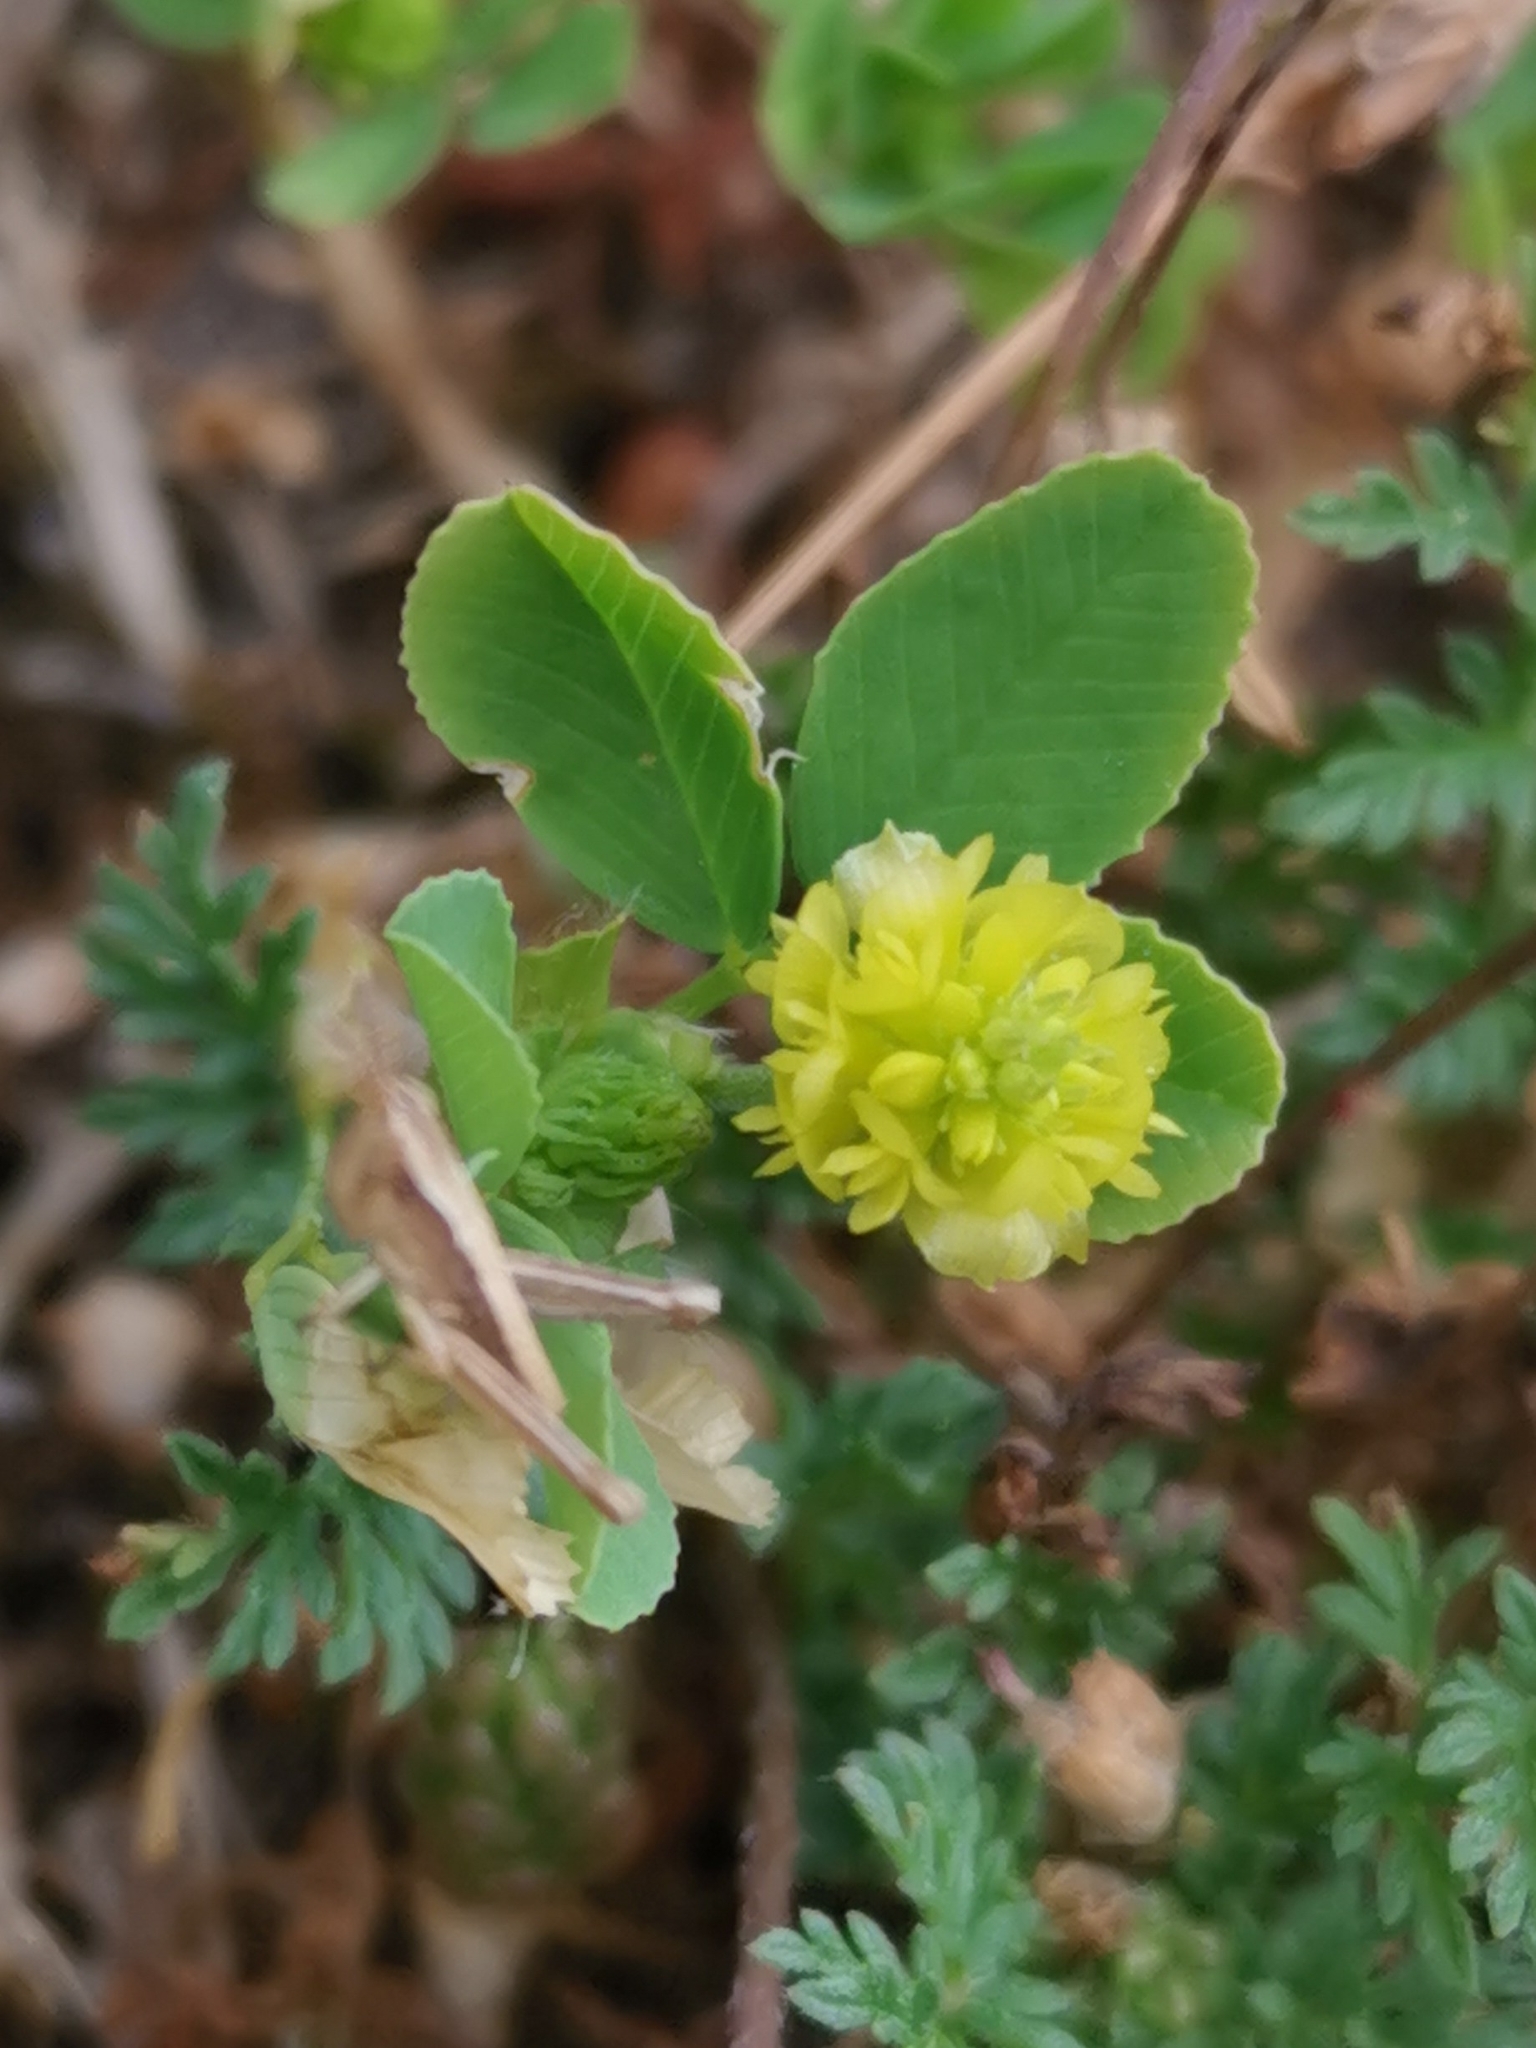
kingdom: Plantae
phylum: Tracheophyta
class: Magnoliopsida
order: Fabales
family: Fabaceae
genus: Trifolium
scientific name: Trifolium campestre
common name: Field clover
